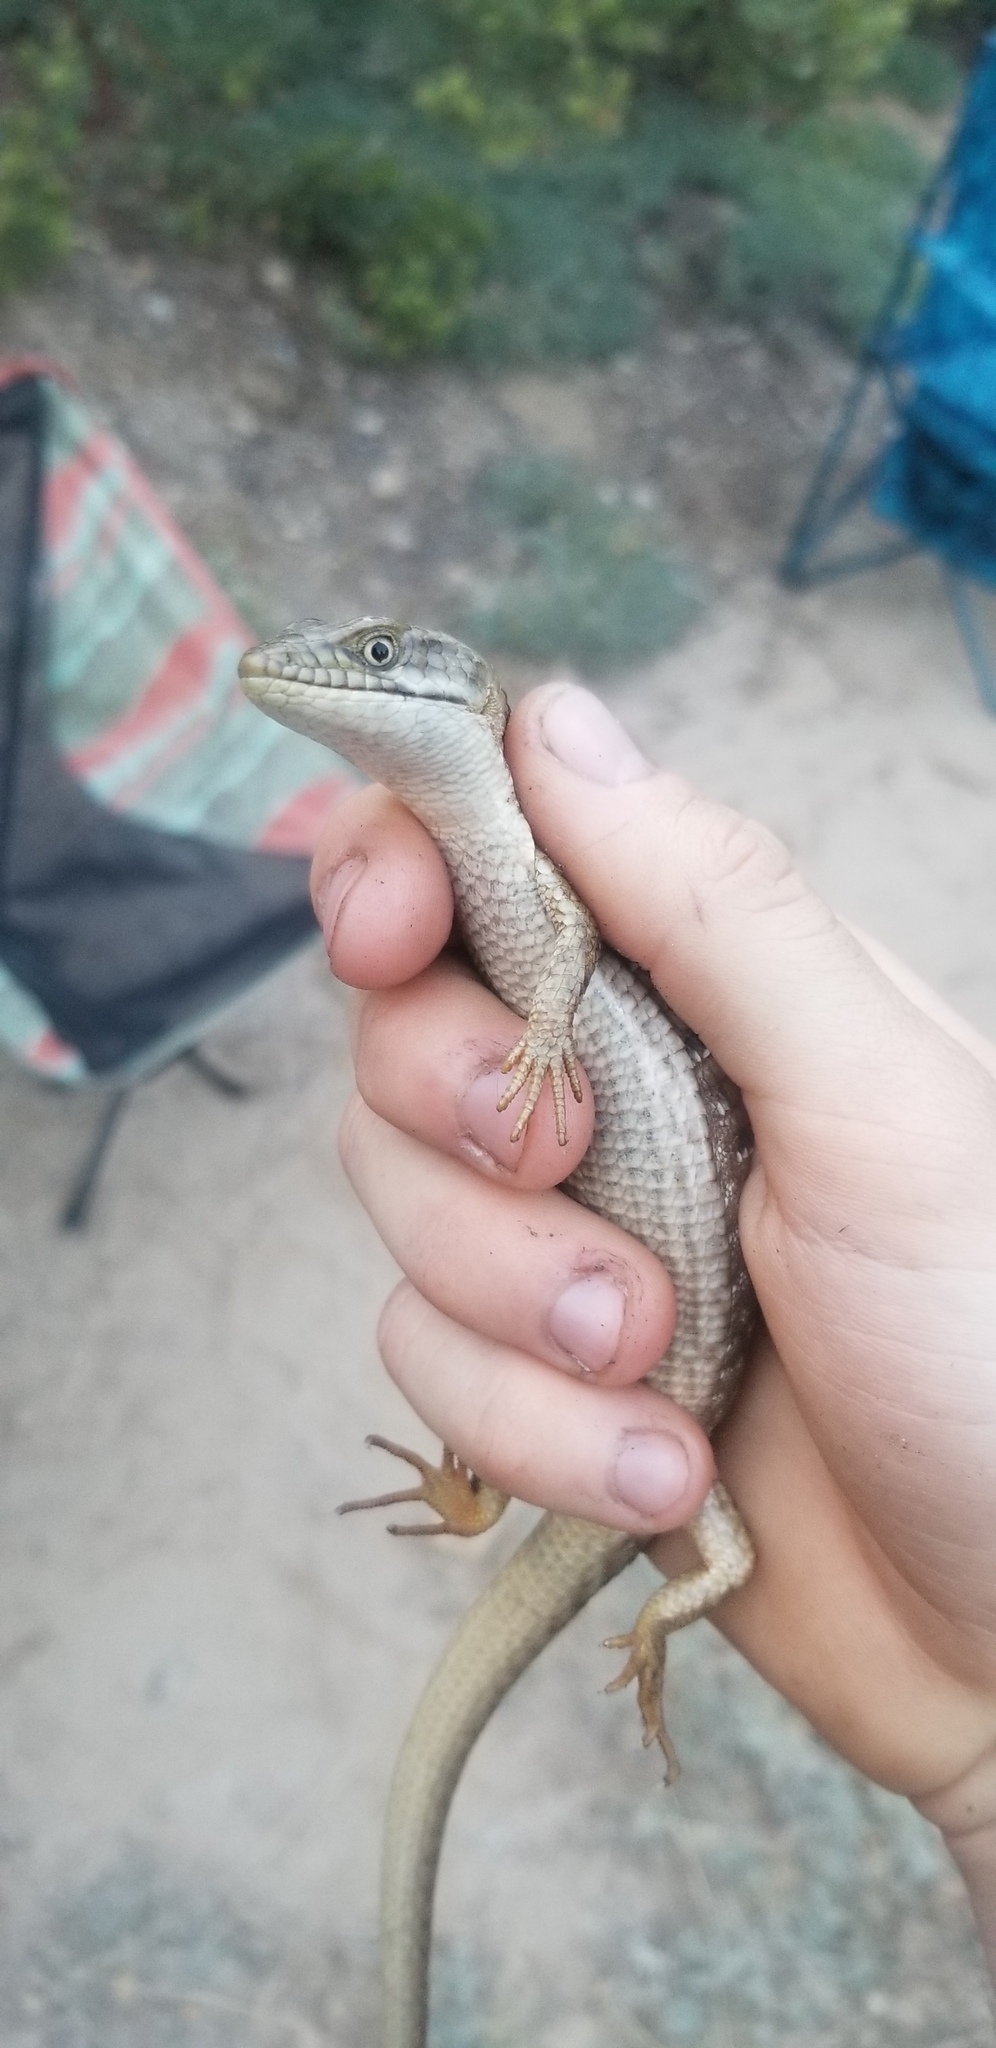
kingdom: Animalia
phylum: Chordata
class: Squamata
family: Anguidae
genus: Elgaria
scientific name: Elgaria multicarinata
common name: Southern alligator lizard
